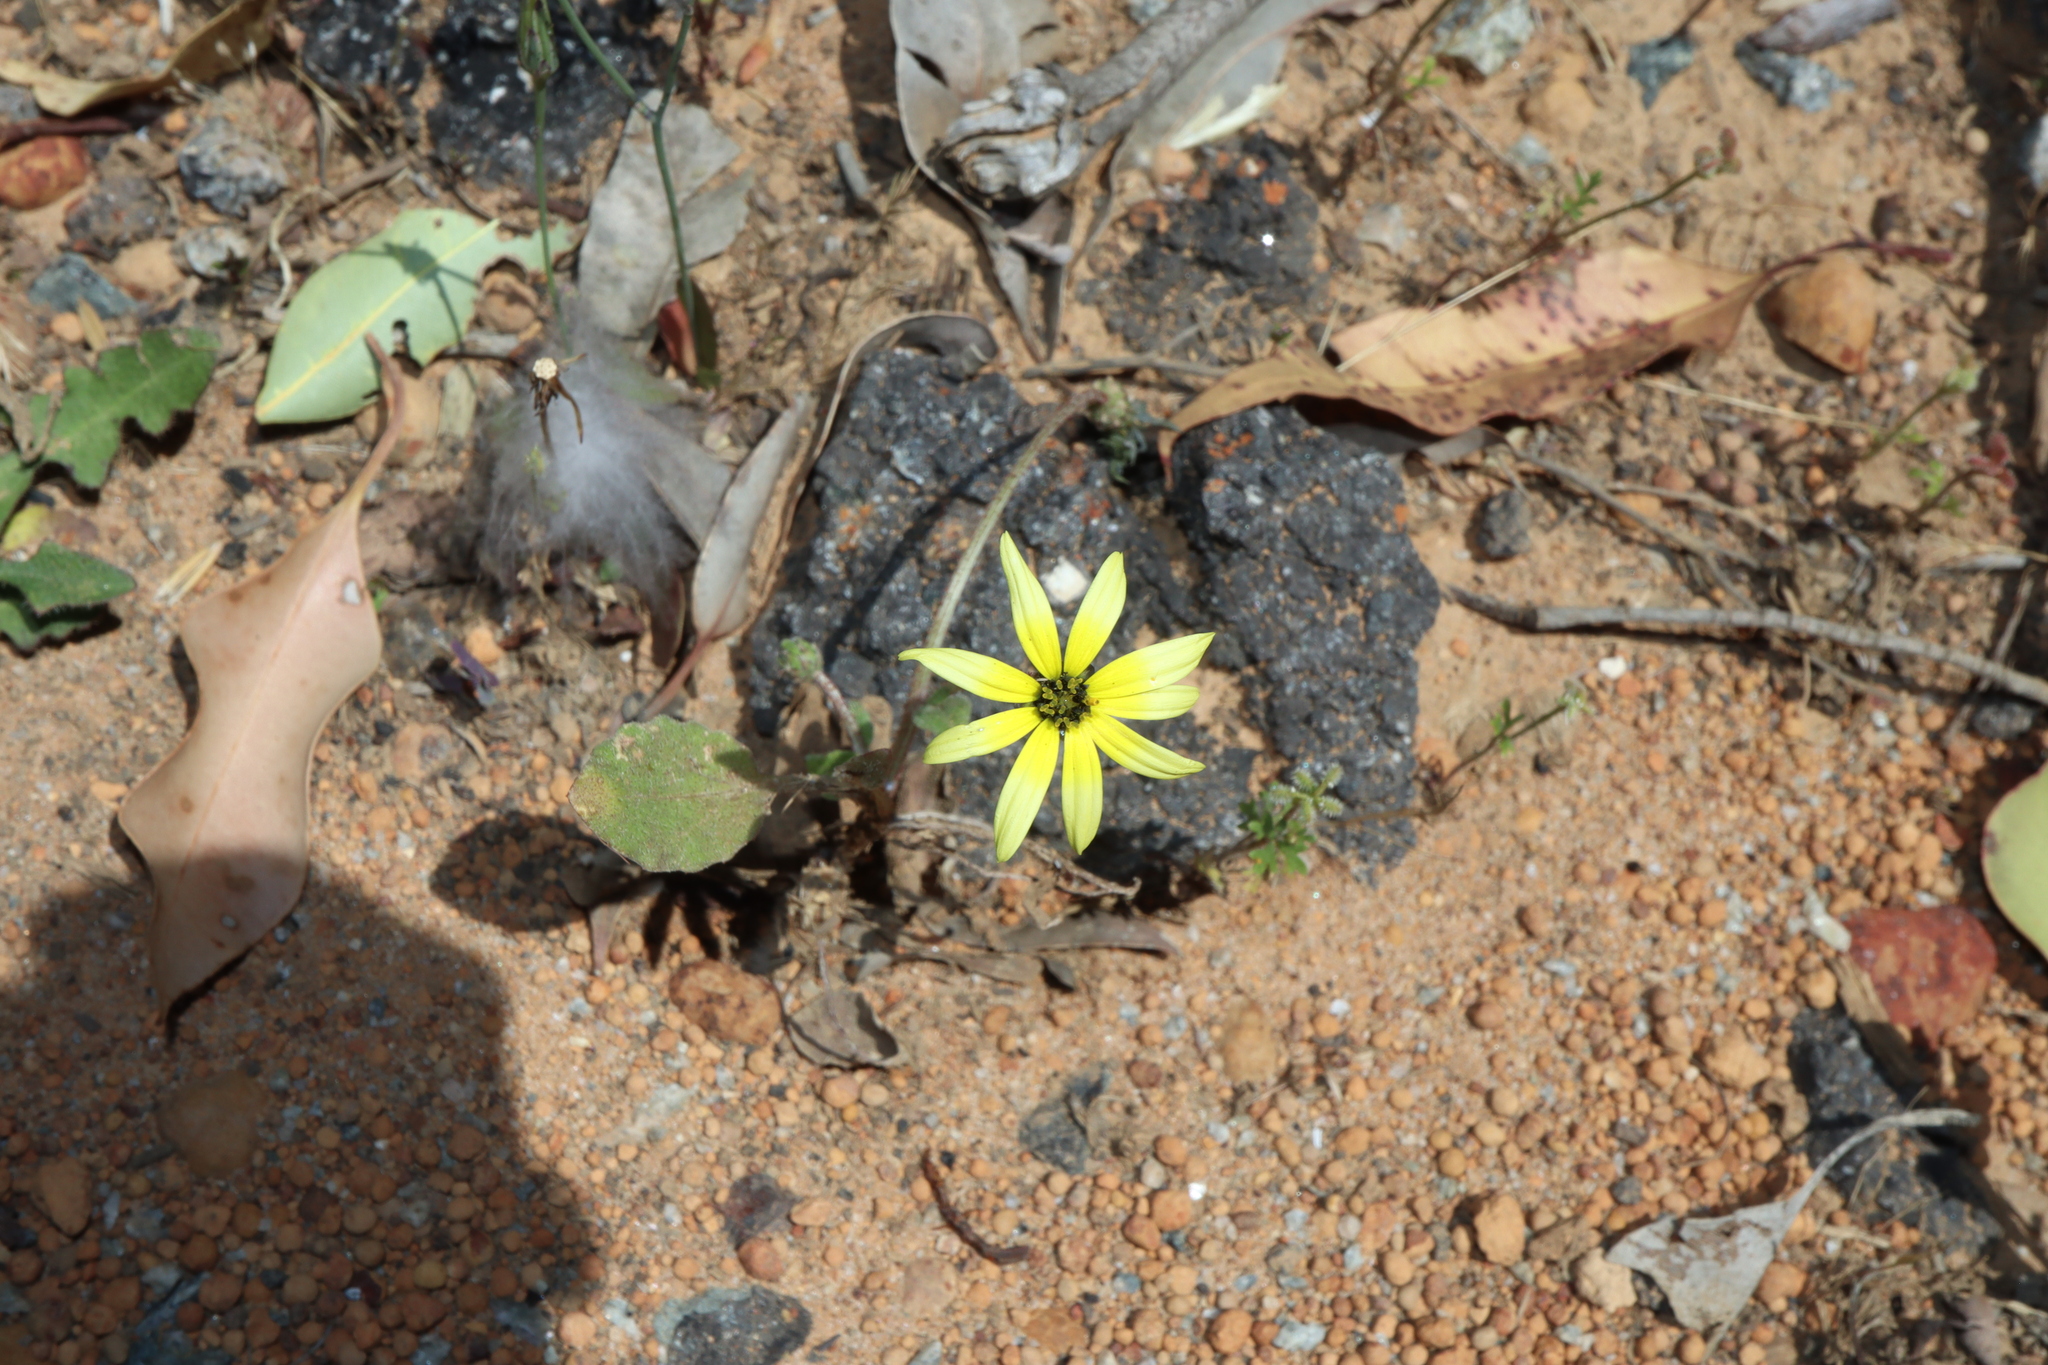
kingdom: Plantae
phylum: Tracheophyta
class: Magnoliopsida
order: Asterales
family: Asteraceae
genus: Arctotheca
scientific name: Arctotheca calendula
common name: Capeweed
